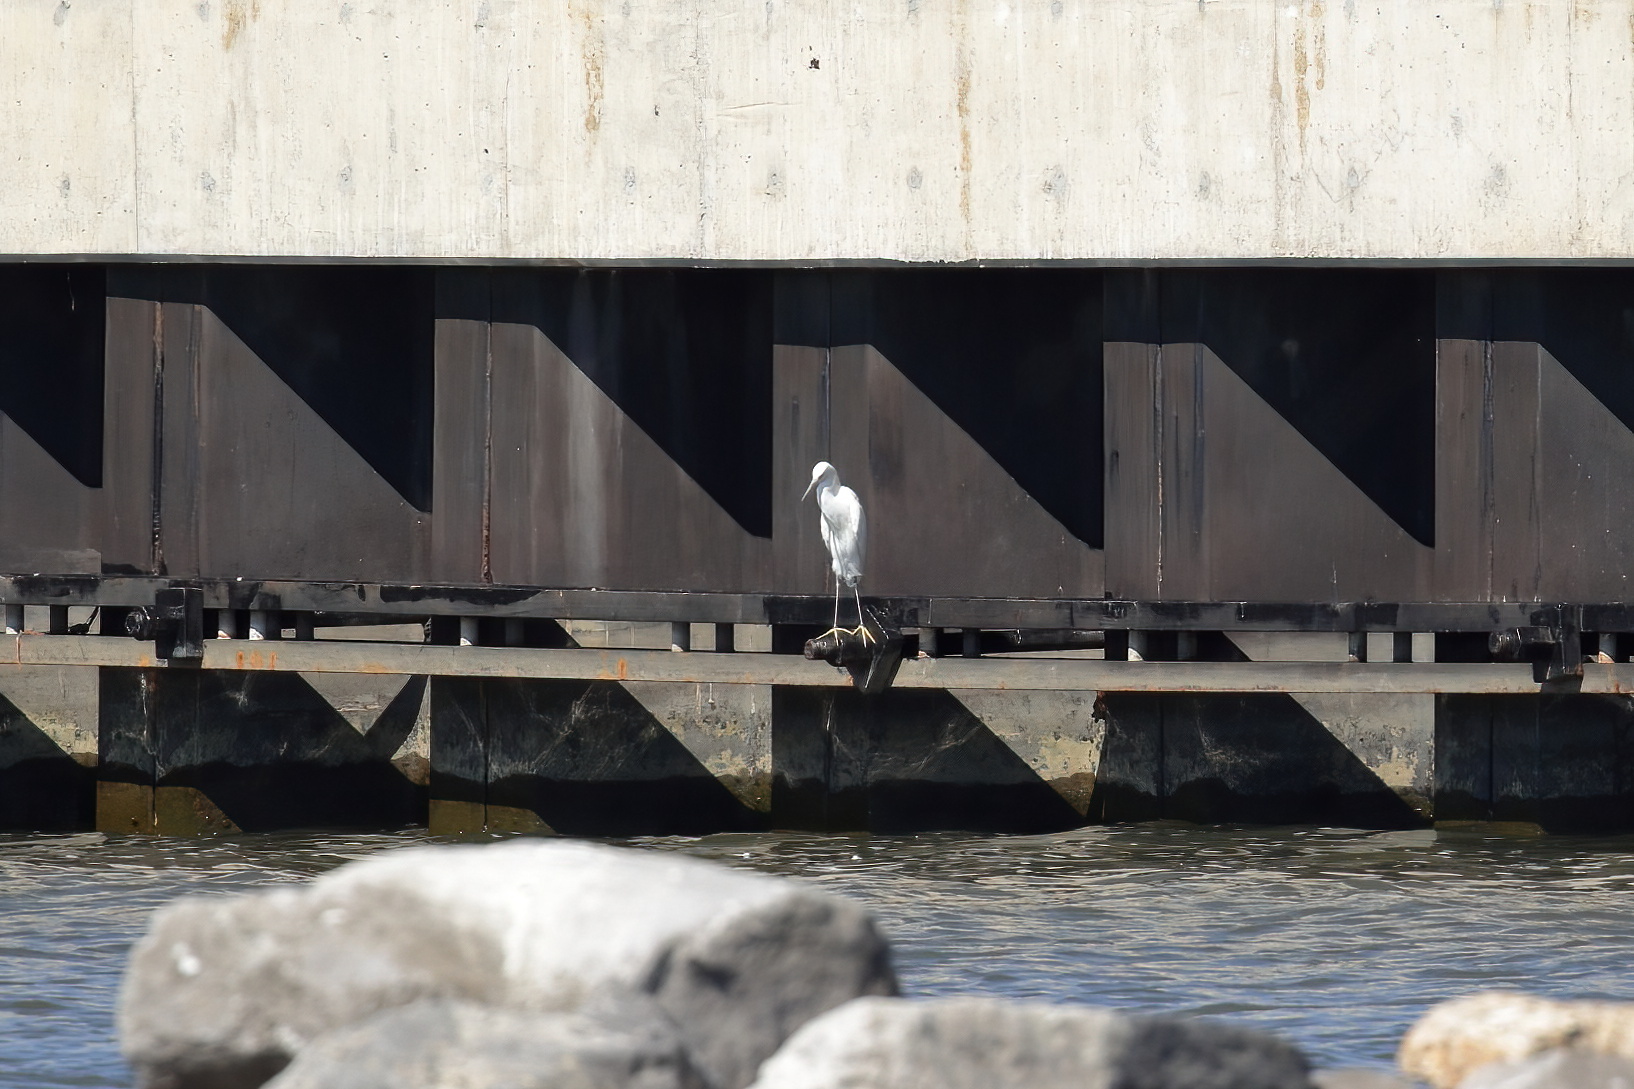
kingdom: Animalia
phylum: Chordata
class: Aves
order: Pelecaniformes
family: Ardeidae
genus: Egretta
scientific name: Egretta thula
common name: Snowy egret
